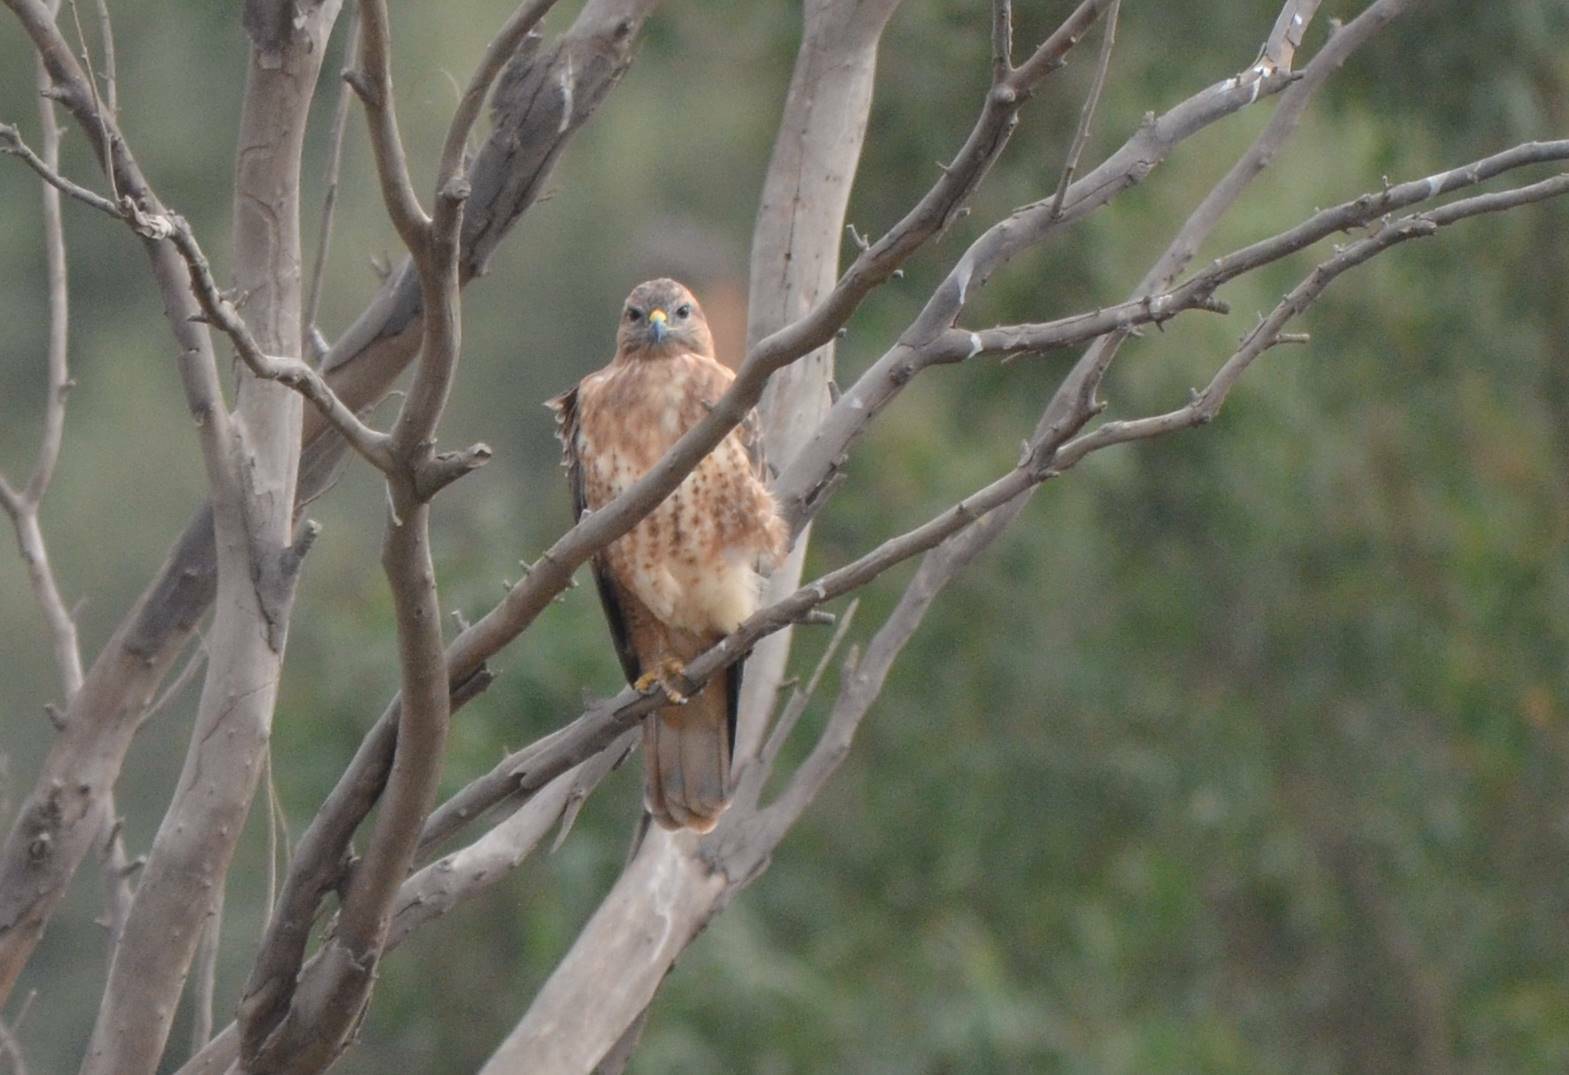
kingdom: Animalia
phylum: Chordata
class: Aves
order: Accipitriformes
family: Accipitridae
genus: Buteo
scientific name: Buteo rufinus
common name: Long-legged buzzard
